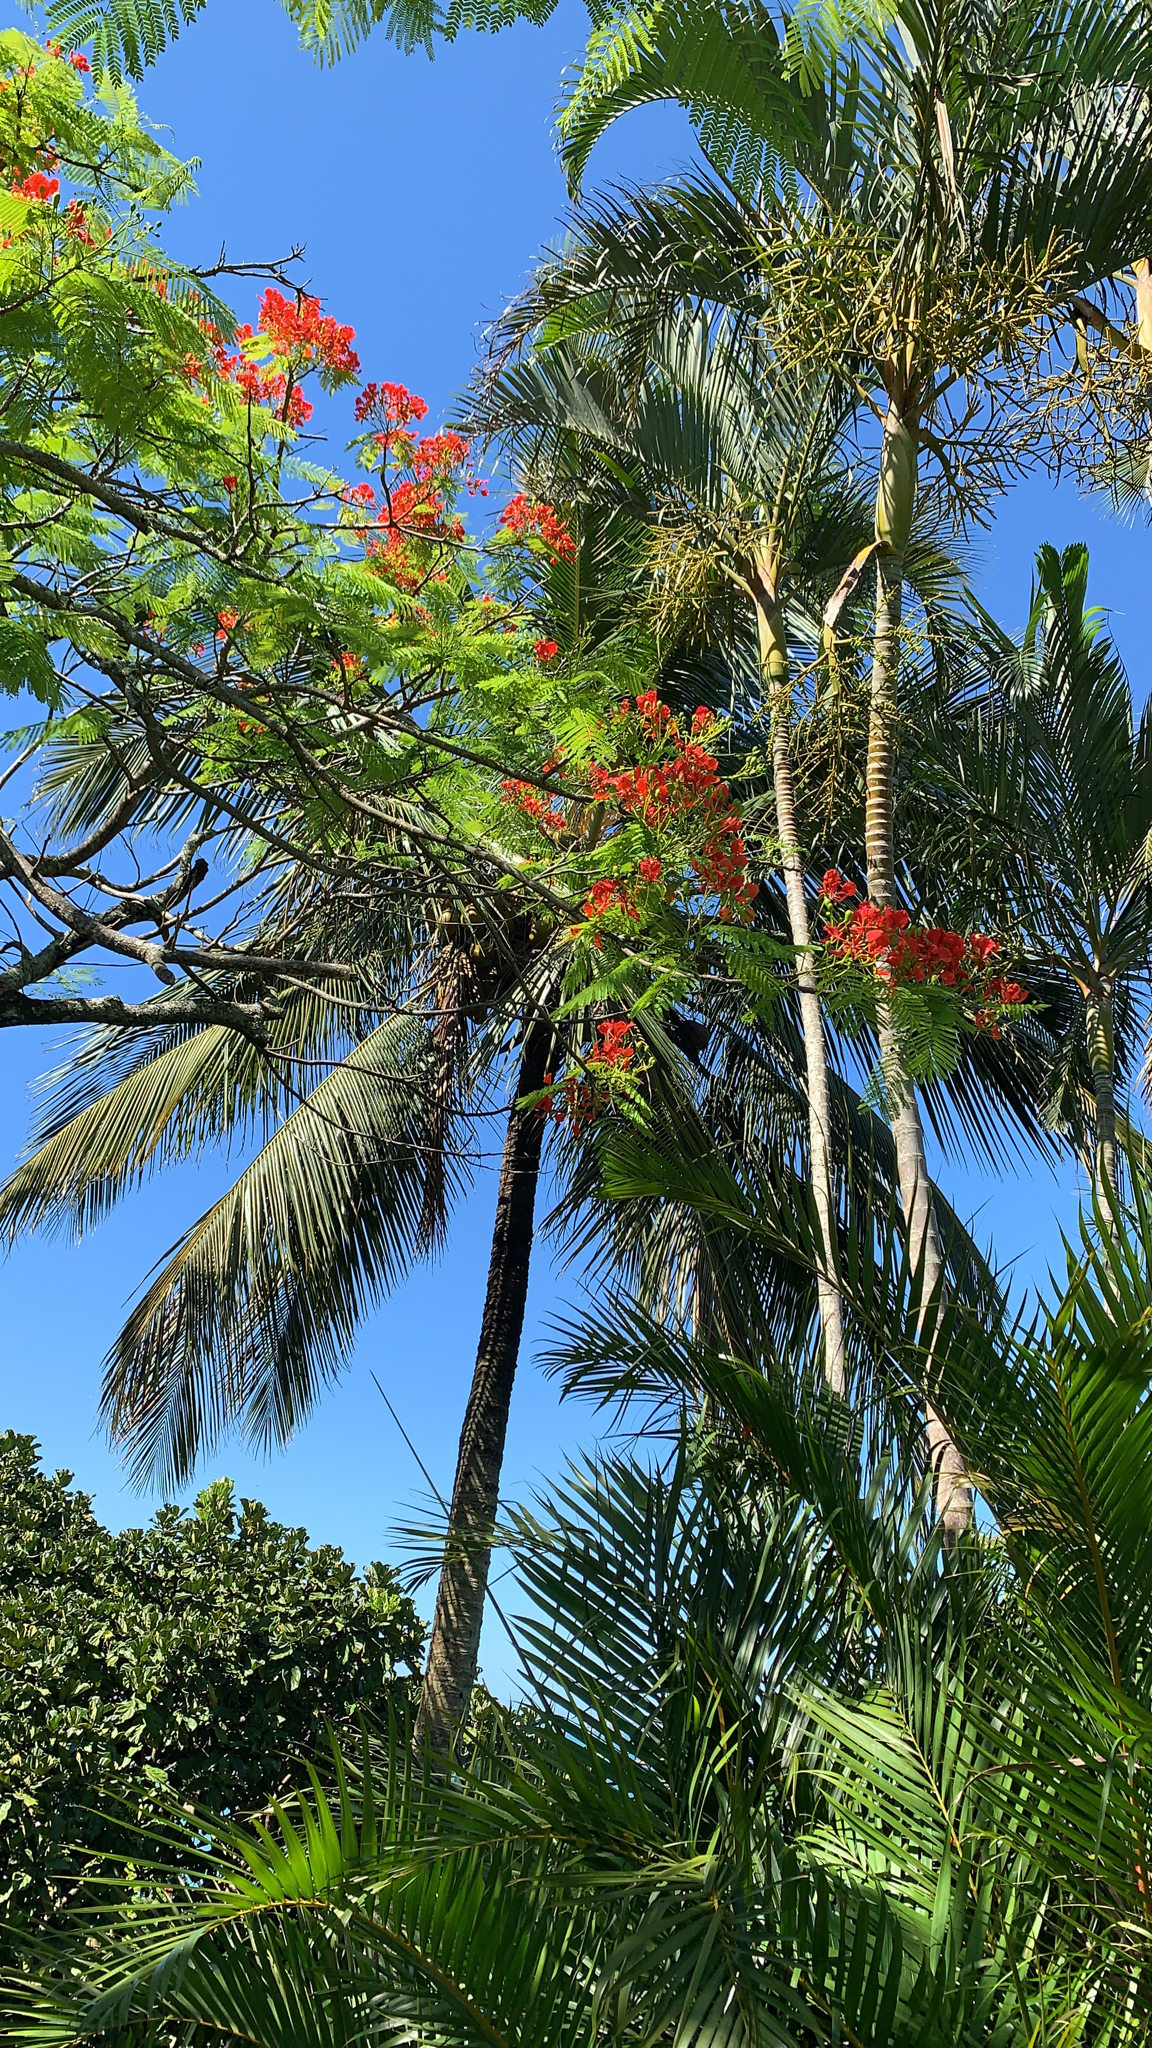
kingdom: Plantae
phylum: Tracheophyta
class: Magnoliopsida
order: Fabales
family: Fabaceae
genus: Delonix
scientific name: Delonix regia
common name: Royal poinciana
